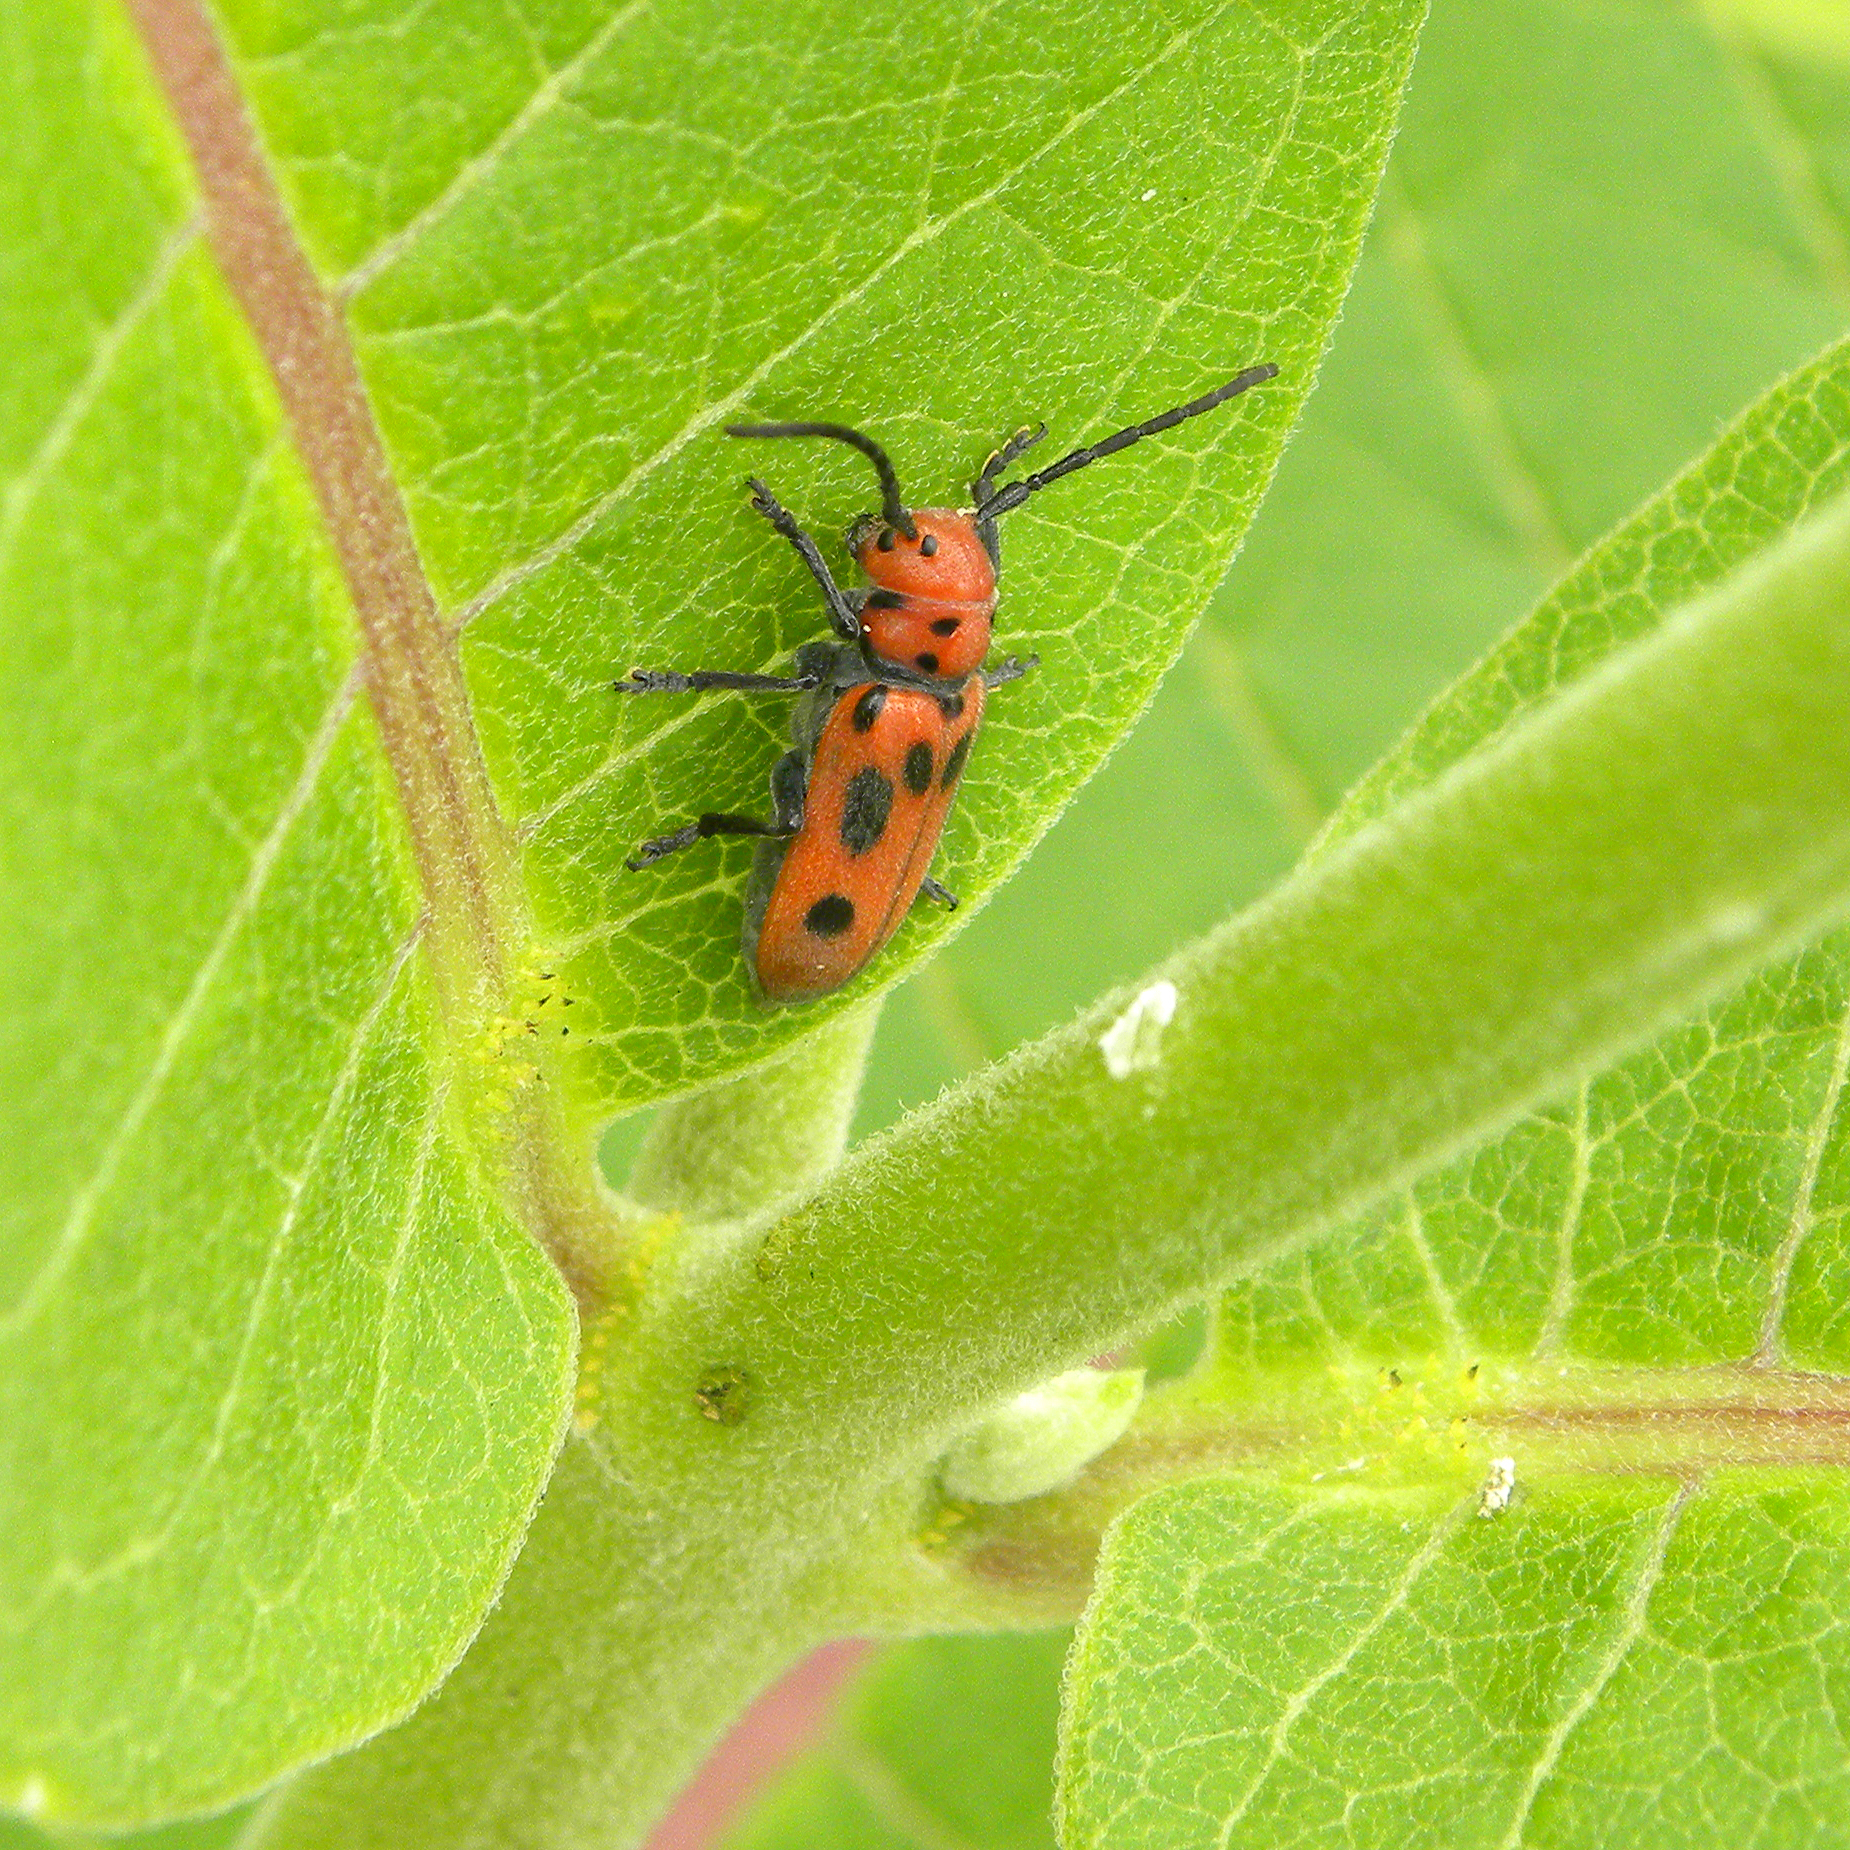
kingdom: Animalia
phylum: Arthropoda
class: Insecta
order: Coleoptera
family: Cerambycidae
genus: Tetraopes
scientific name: Tetraopes tetrophthalmus
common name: Red milkweed beetle
